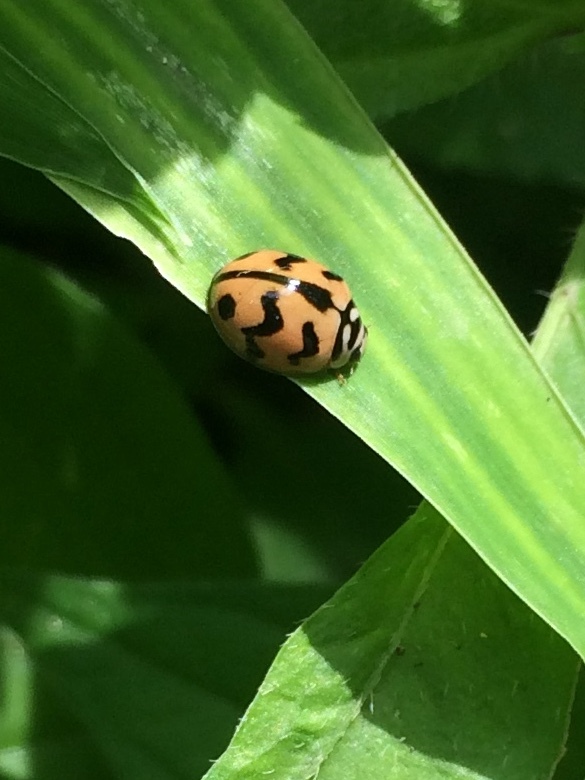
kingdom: Animalia
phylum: Arthropoda
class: Insecta
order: Coleoptera
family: Coccinellidae
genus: Cheilomenes
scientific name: Cheilomenes sexmaculata
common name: Ladybird beetle
